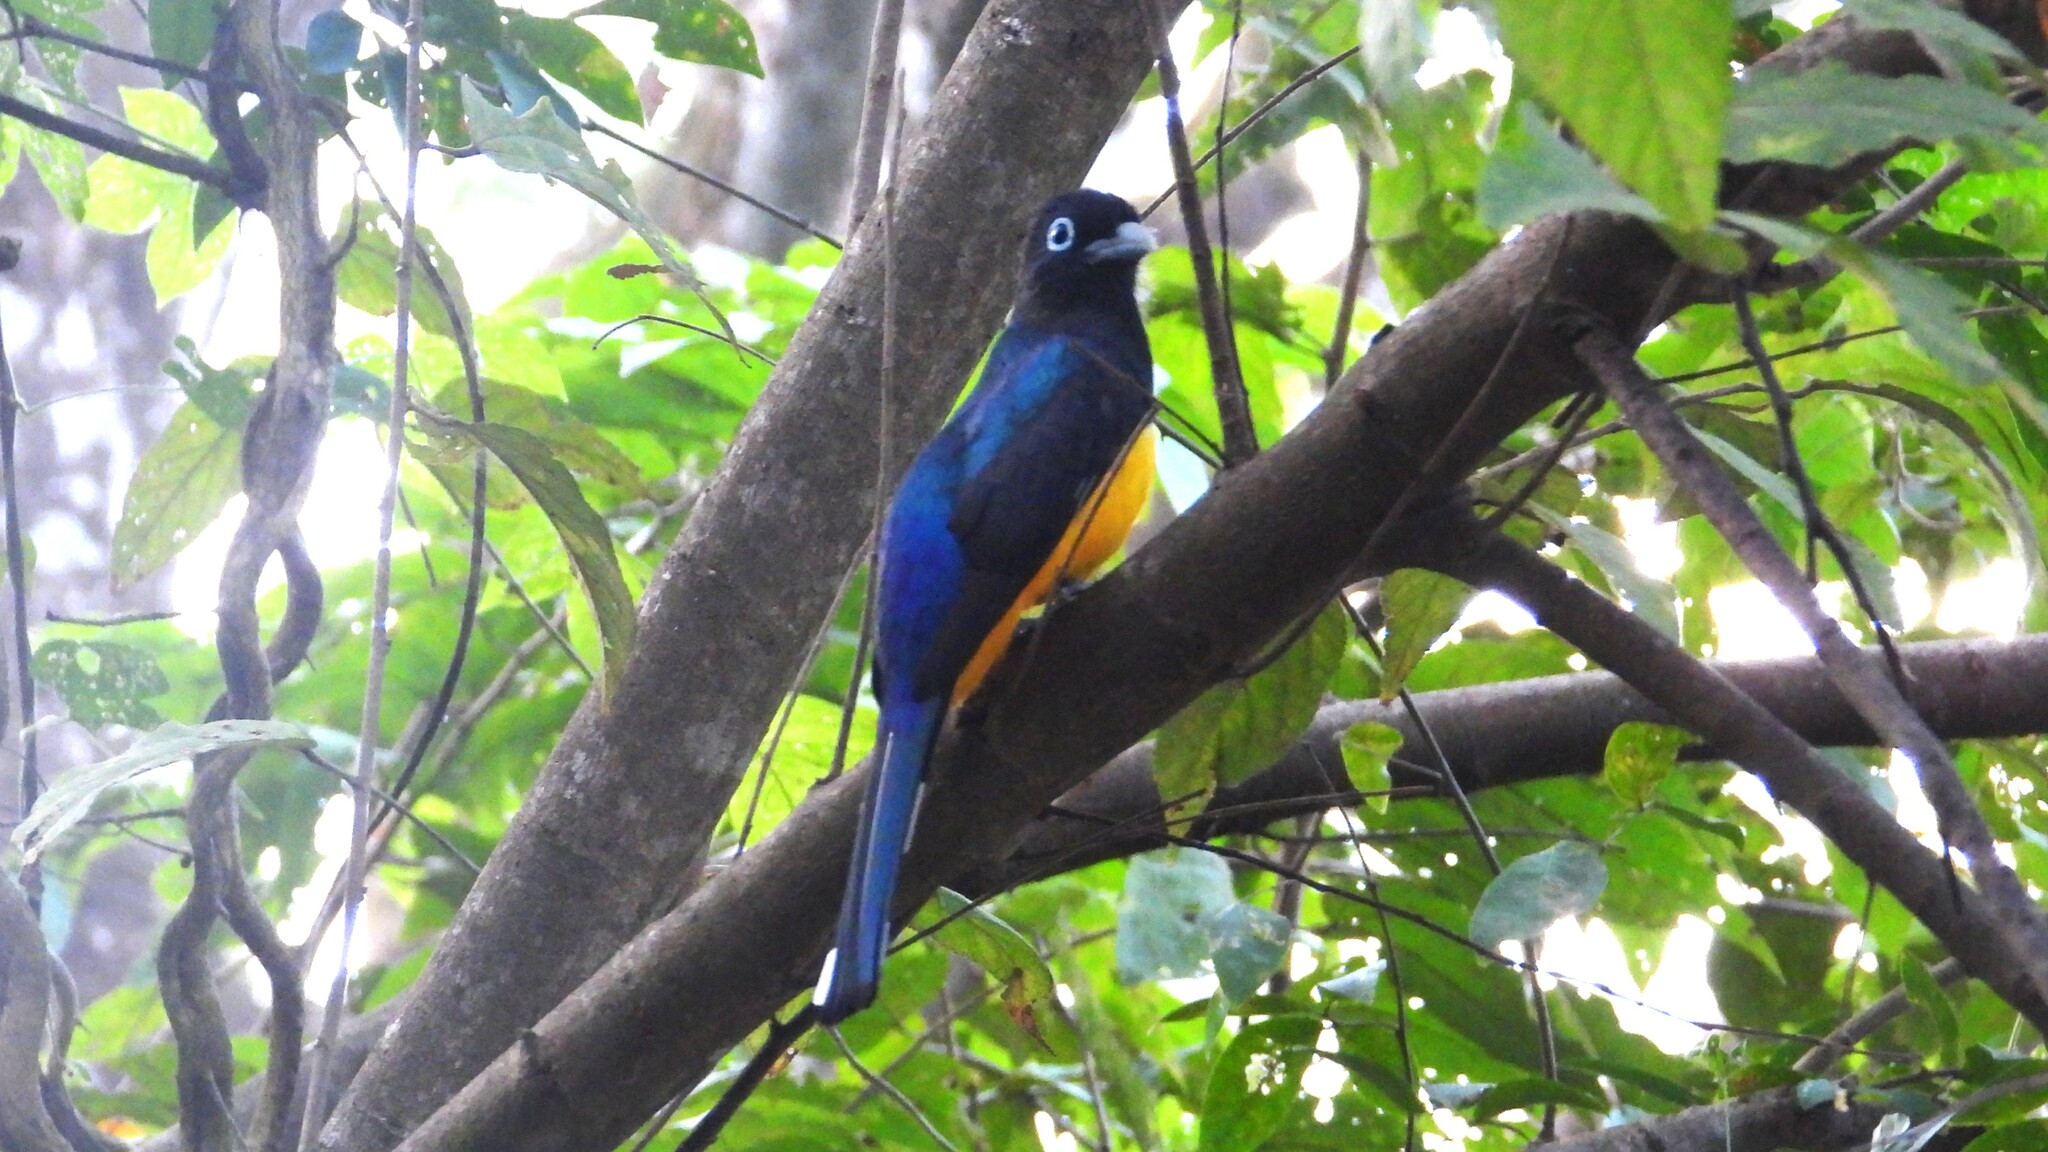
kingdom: Animalia
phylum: Chordata
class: Aves
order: Trogoniformes
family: Trogonidae
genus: Trogon
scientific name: Trogon melanocephalus
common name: Black-headed trogon
